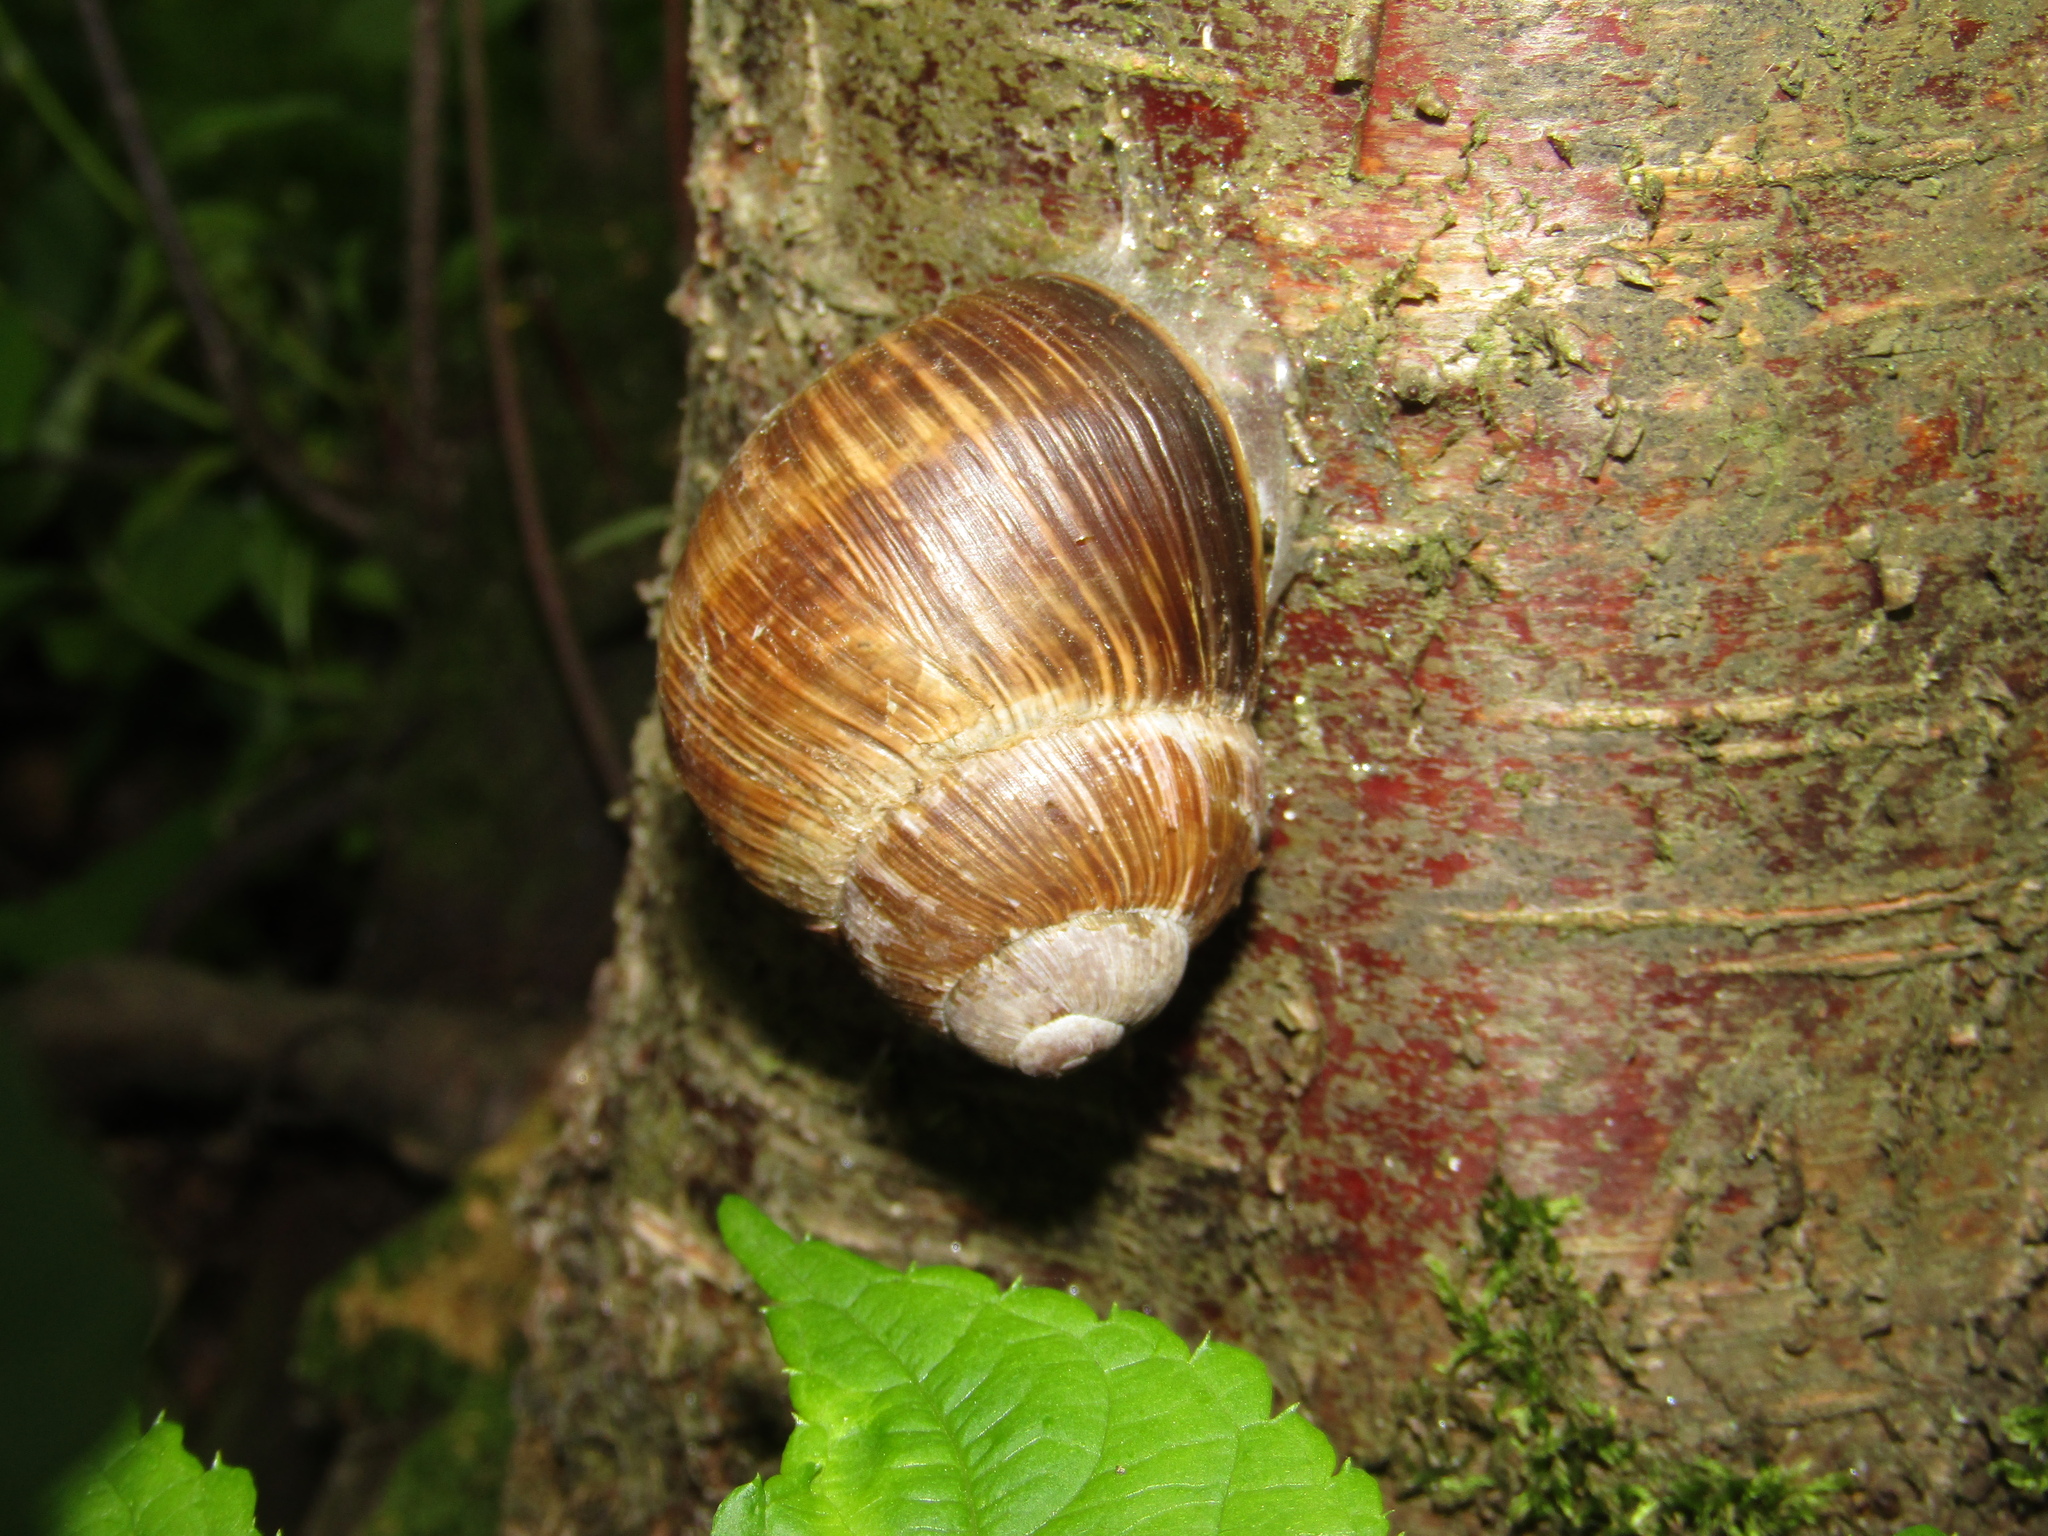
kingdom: Animalia
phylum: Mollusca
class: Gastropoda
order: Stylommatophora
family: Helicidae
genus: Helix
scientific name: Helix pomatia
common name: Roman snail
